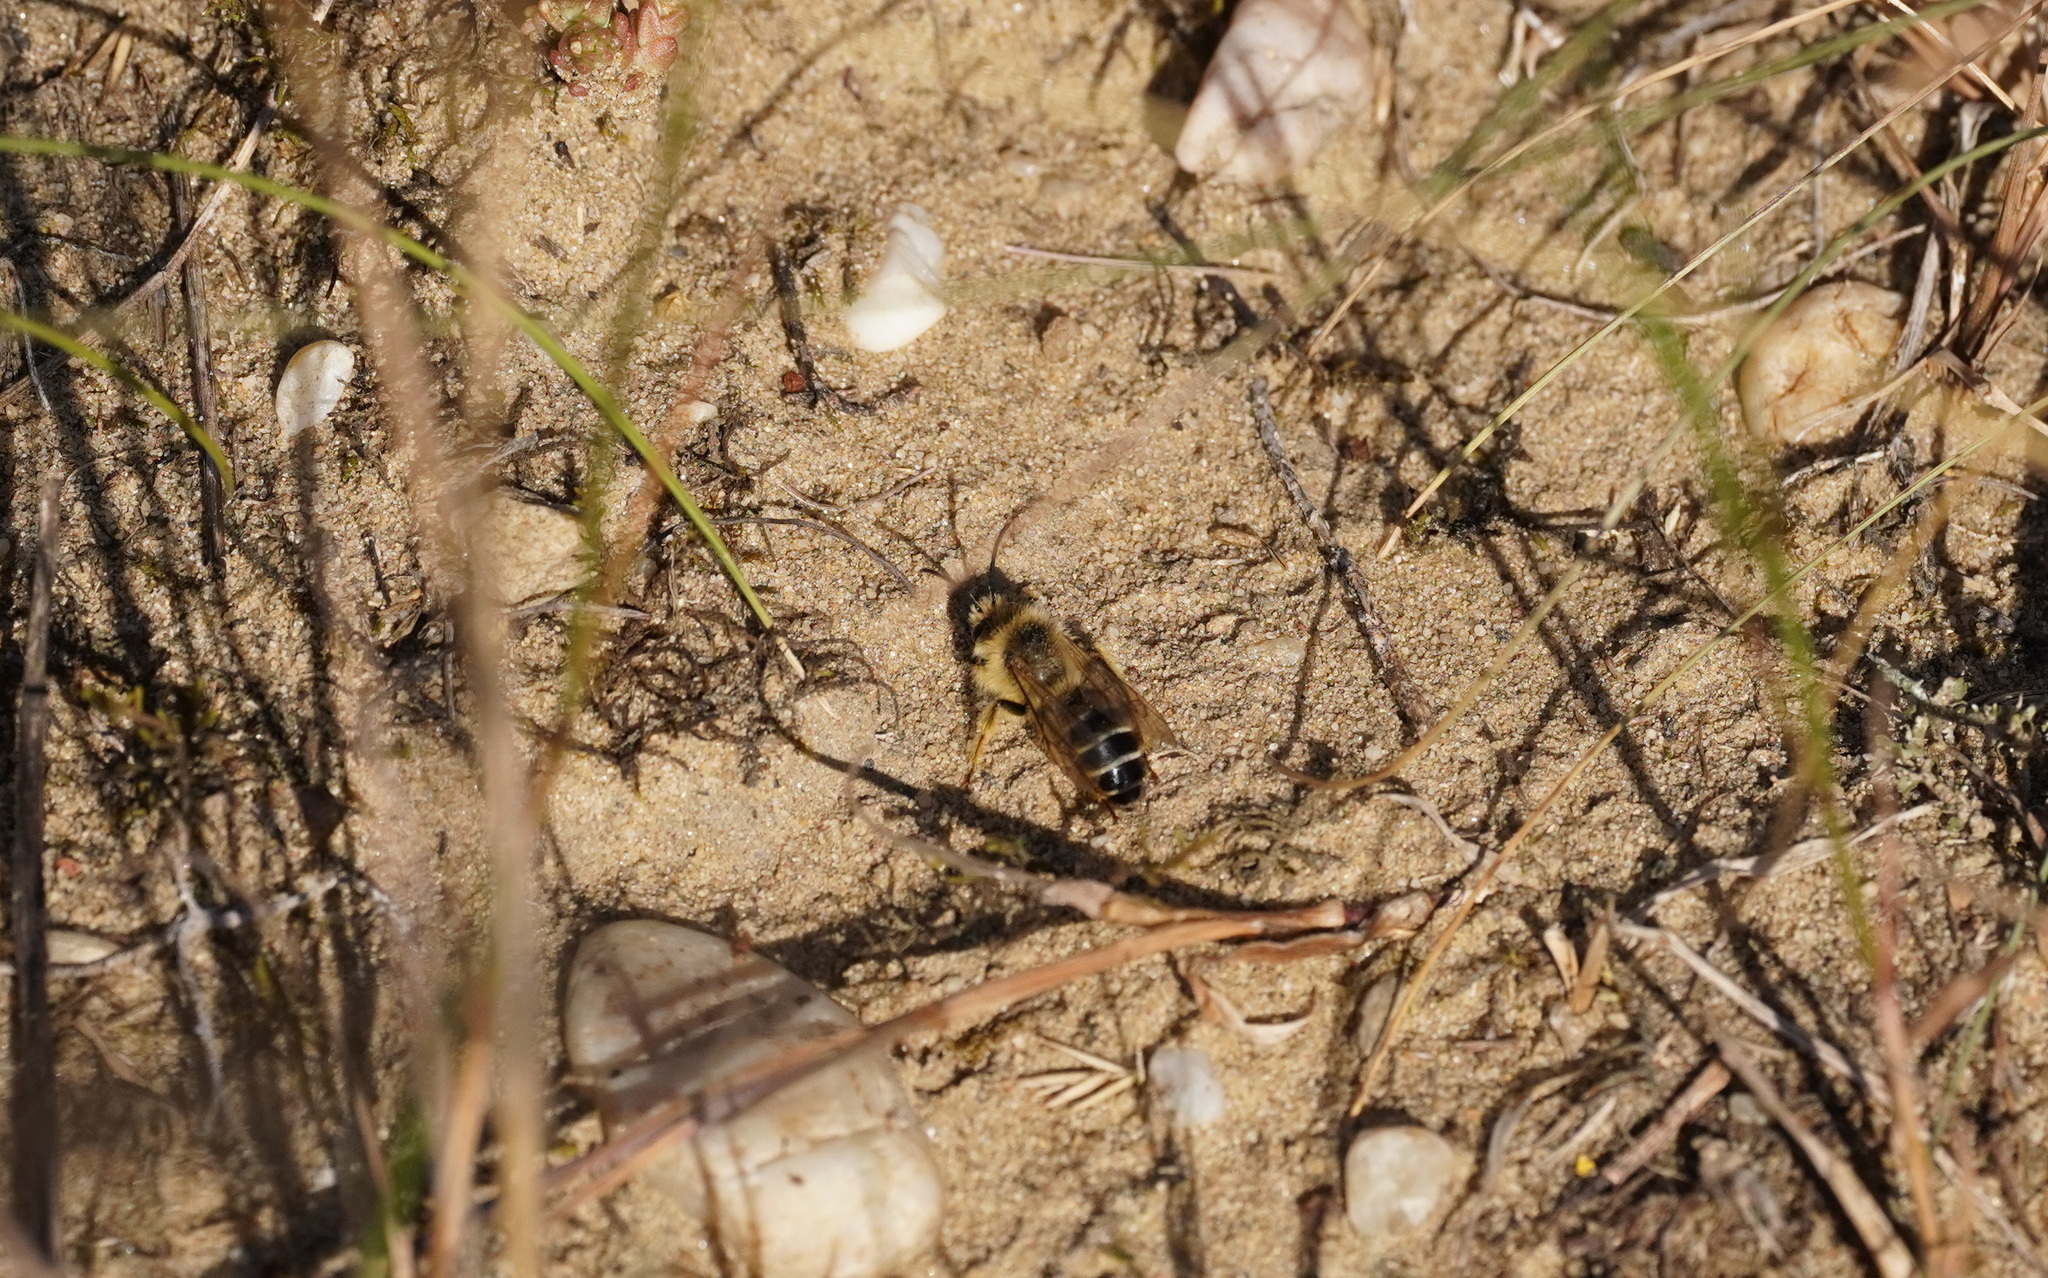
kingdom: Animalia
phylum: Arthropoda
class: Insecta
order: Hymenoptera
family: Melittidae
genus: Dasypoda
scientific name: Dasypoda hirtipes
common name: Pantaloon bee
